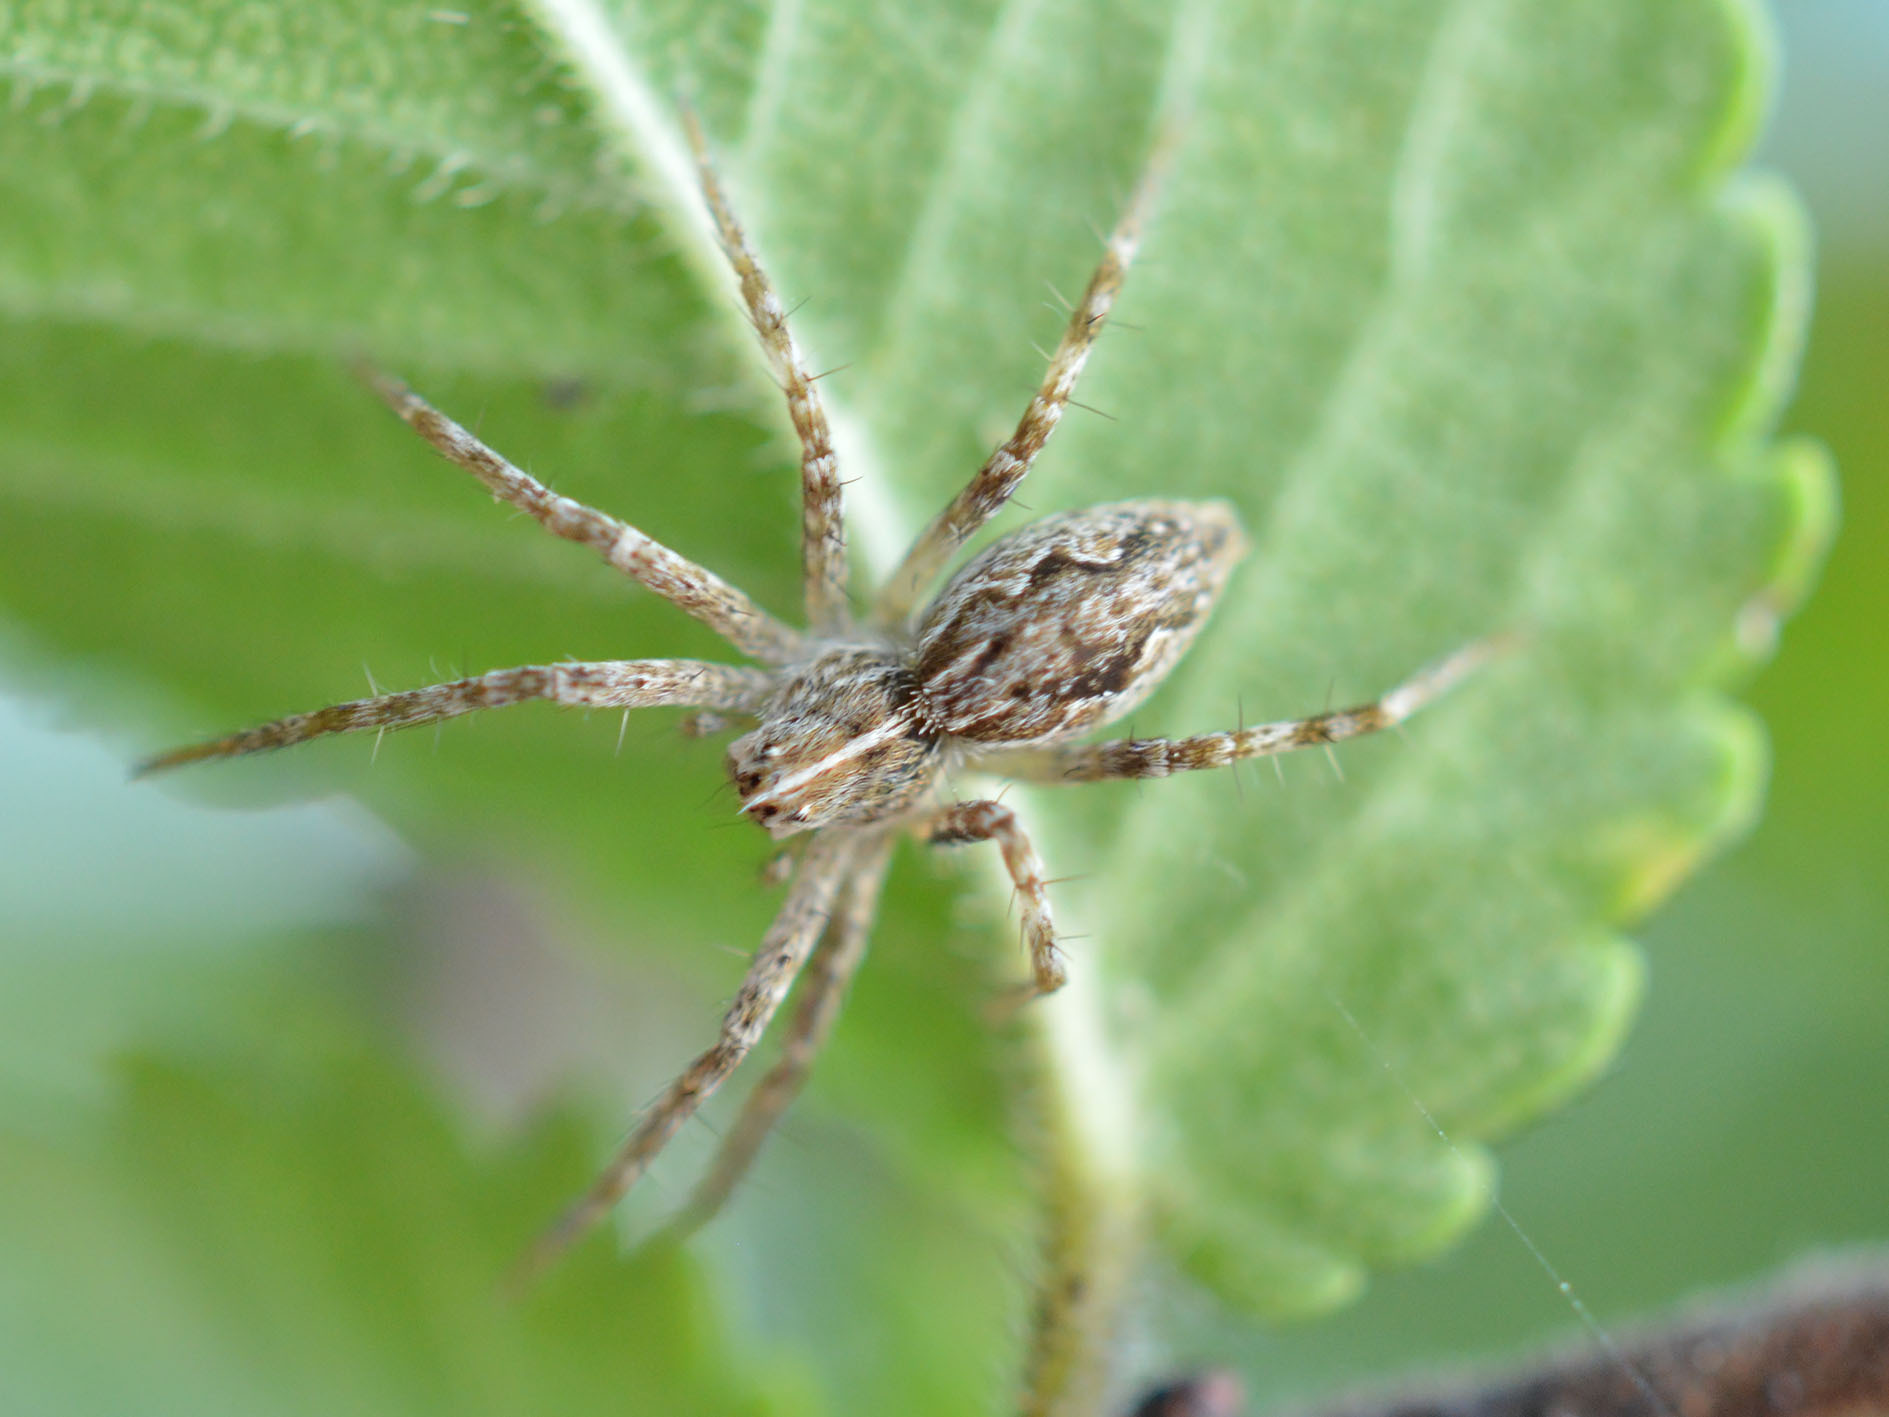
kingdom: Animalia
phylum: Arthropoda
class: Arachnida
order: Araneae
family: Pisauridae
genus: Pisaura
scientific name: Pisaura
